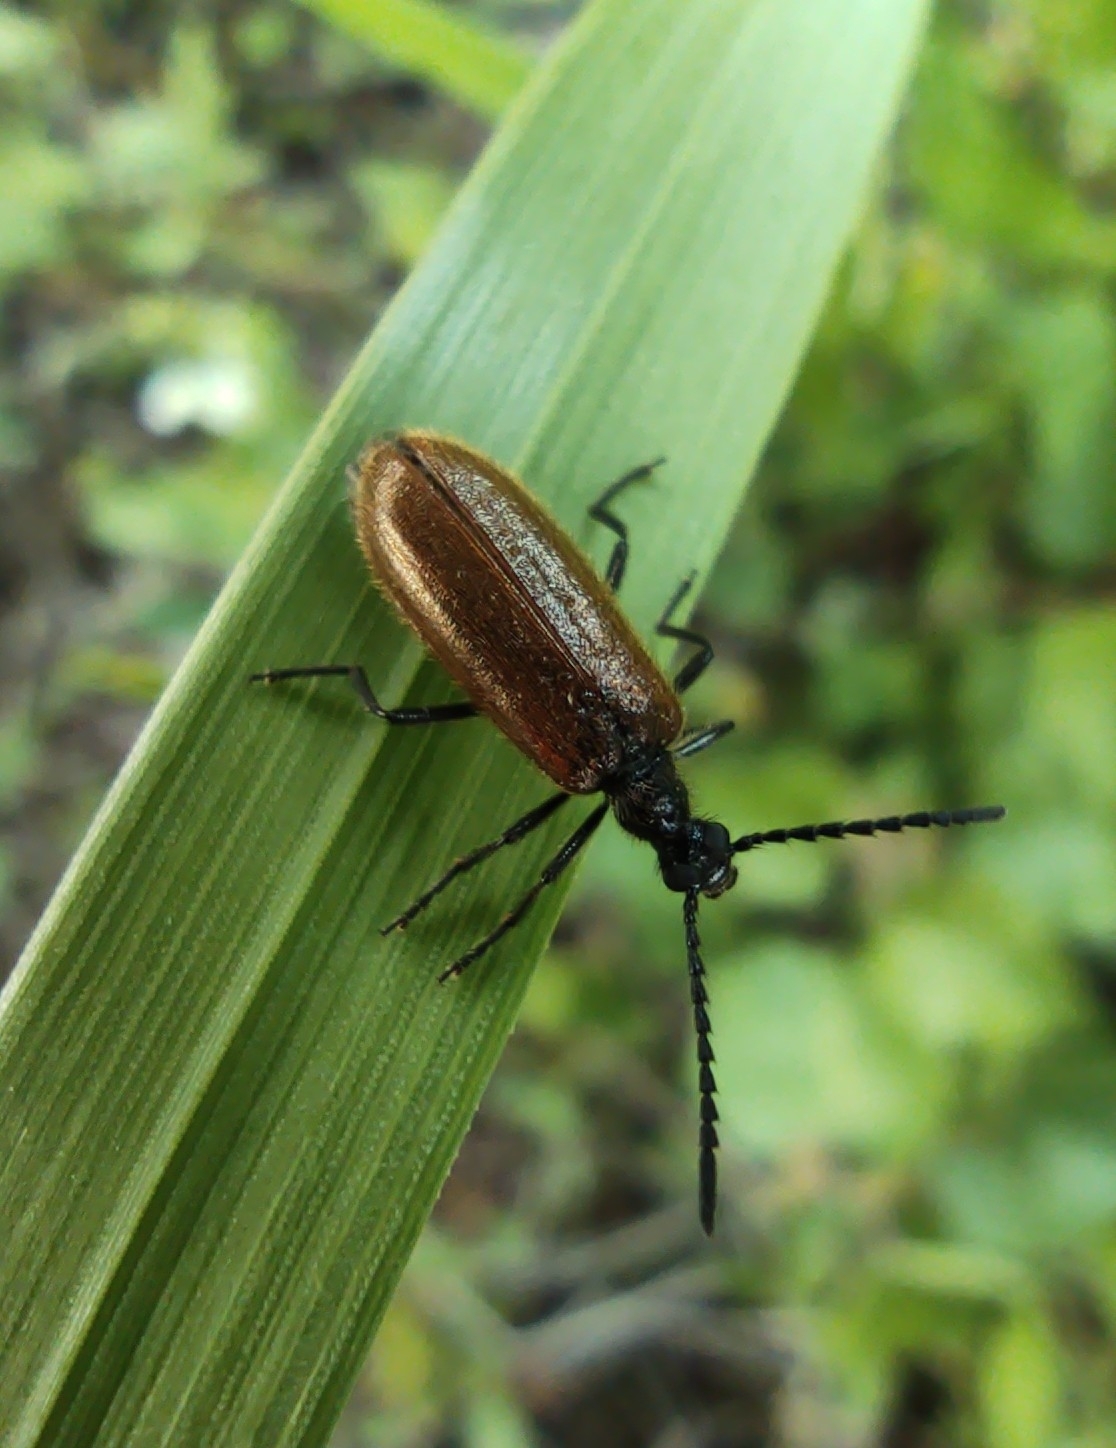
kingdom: Animalia
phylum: Arthropoda
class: Insecta
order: Coleoptera
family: Tenebrionidae
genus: Lagria
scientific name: Lagria hirta
